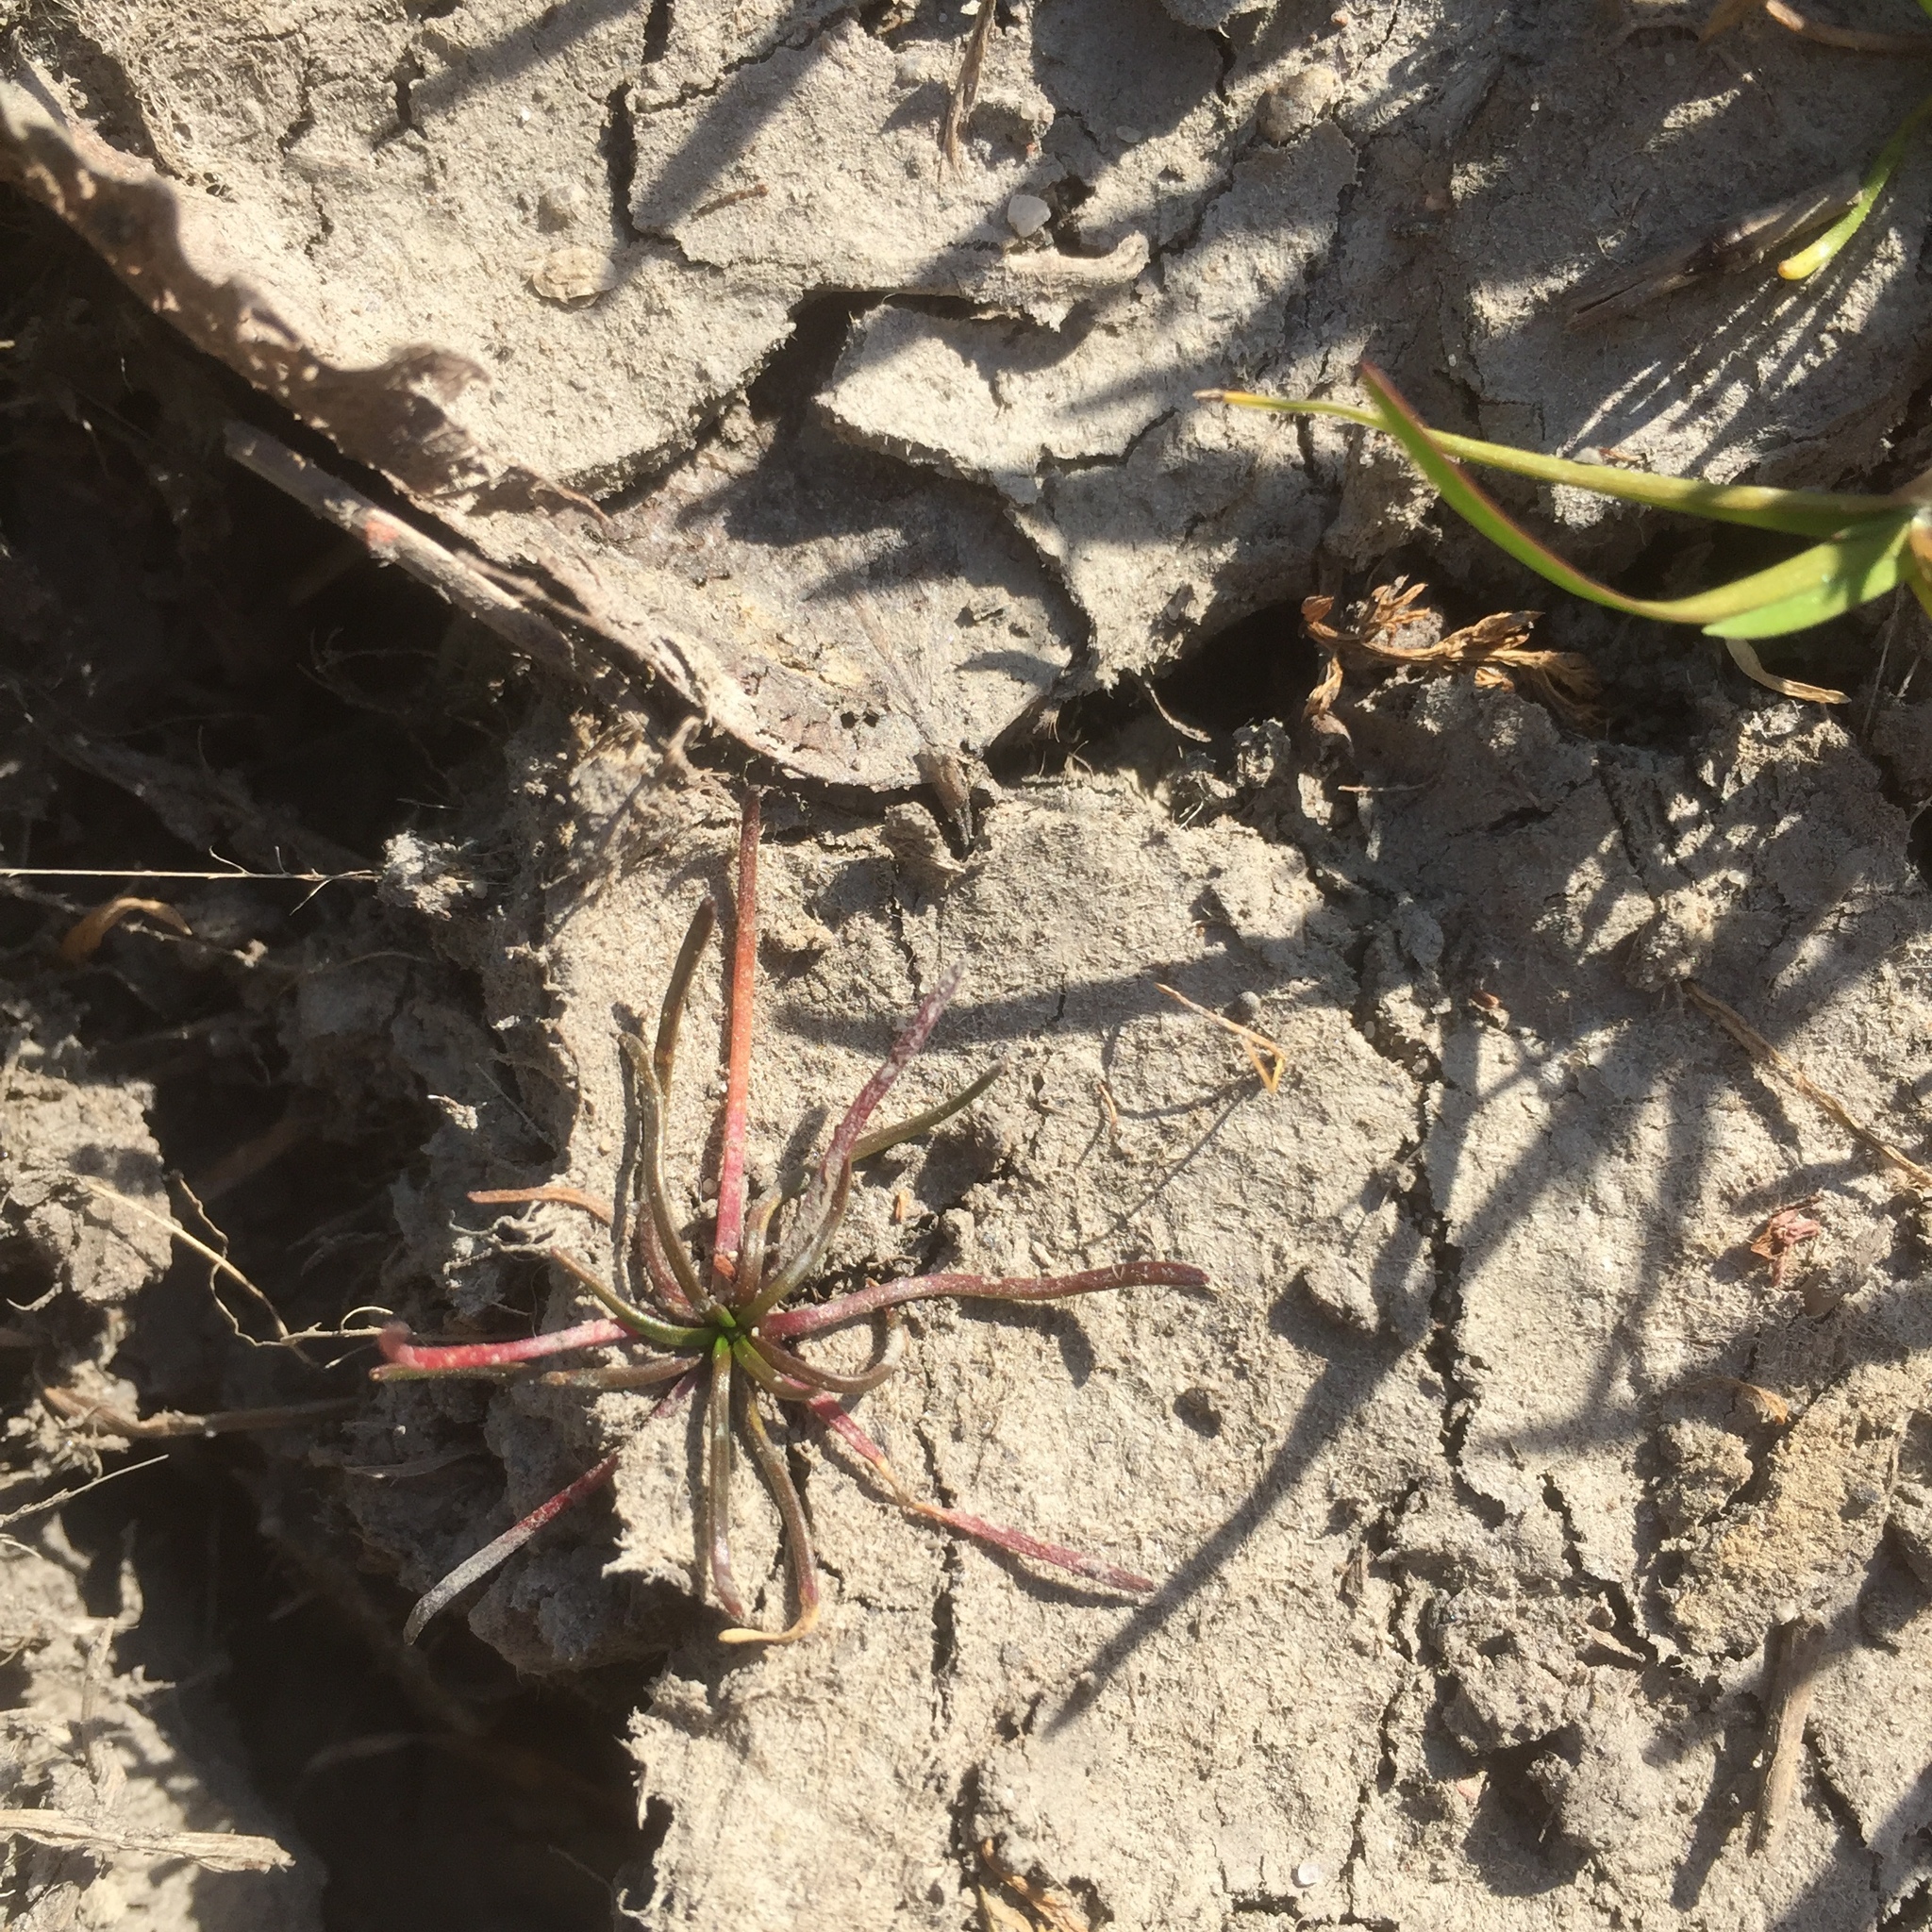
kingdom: Plantae
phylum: Tracheophyta
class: Magnoliopsida
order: Ranunculales
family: Ranunculaceae
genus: Myosurus
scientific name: Myosurus minimus
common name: Mousetail
